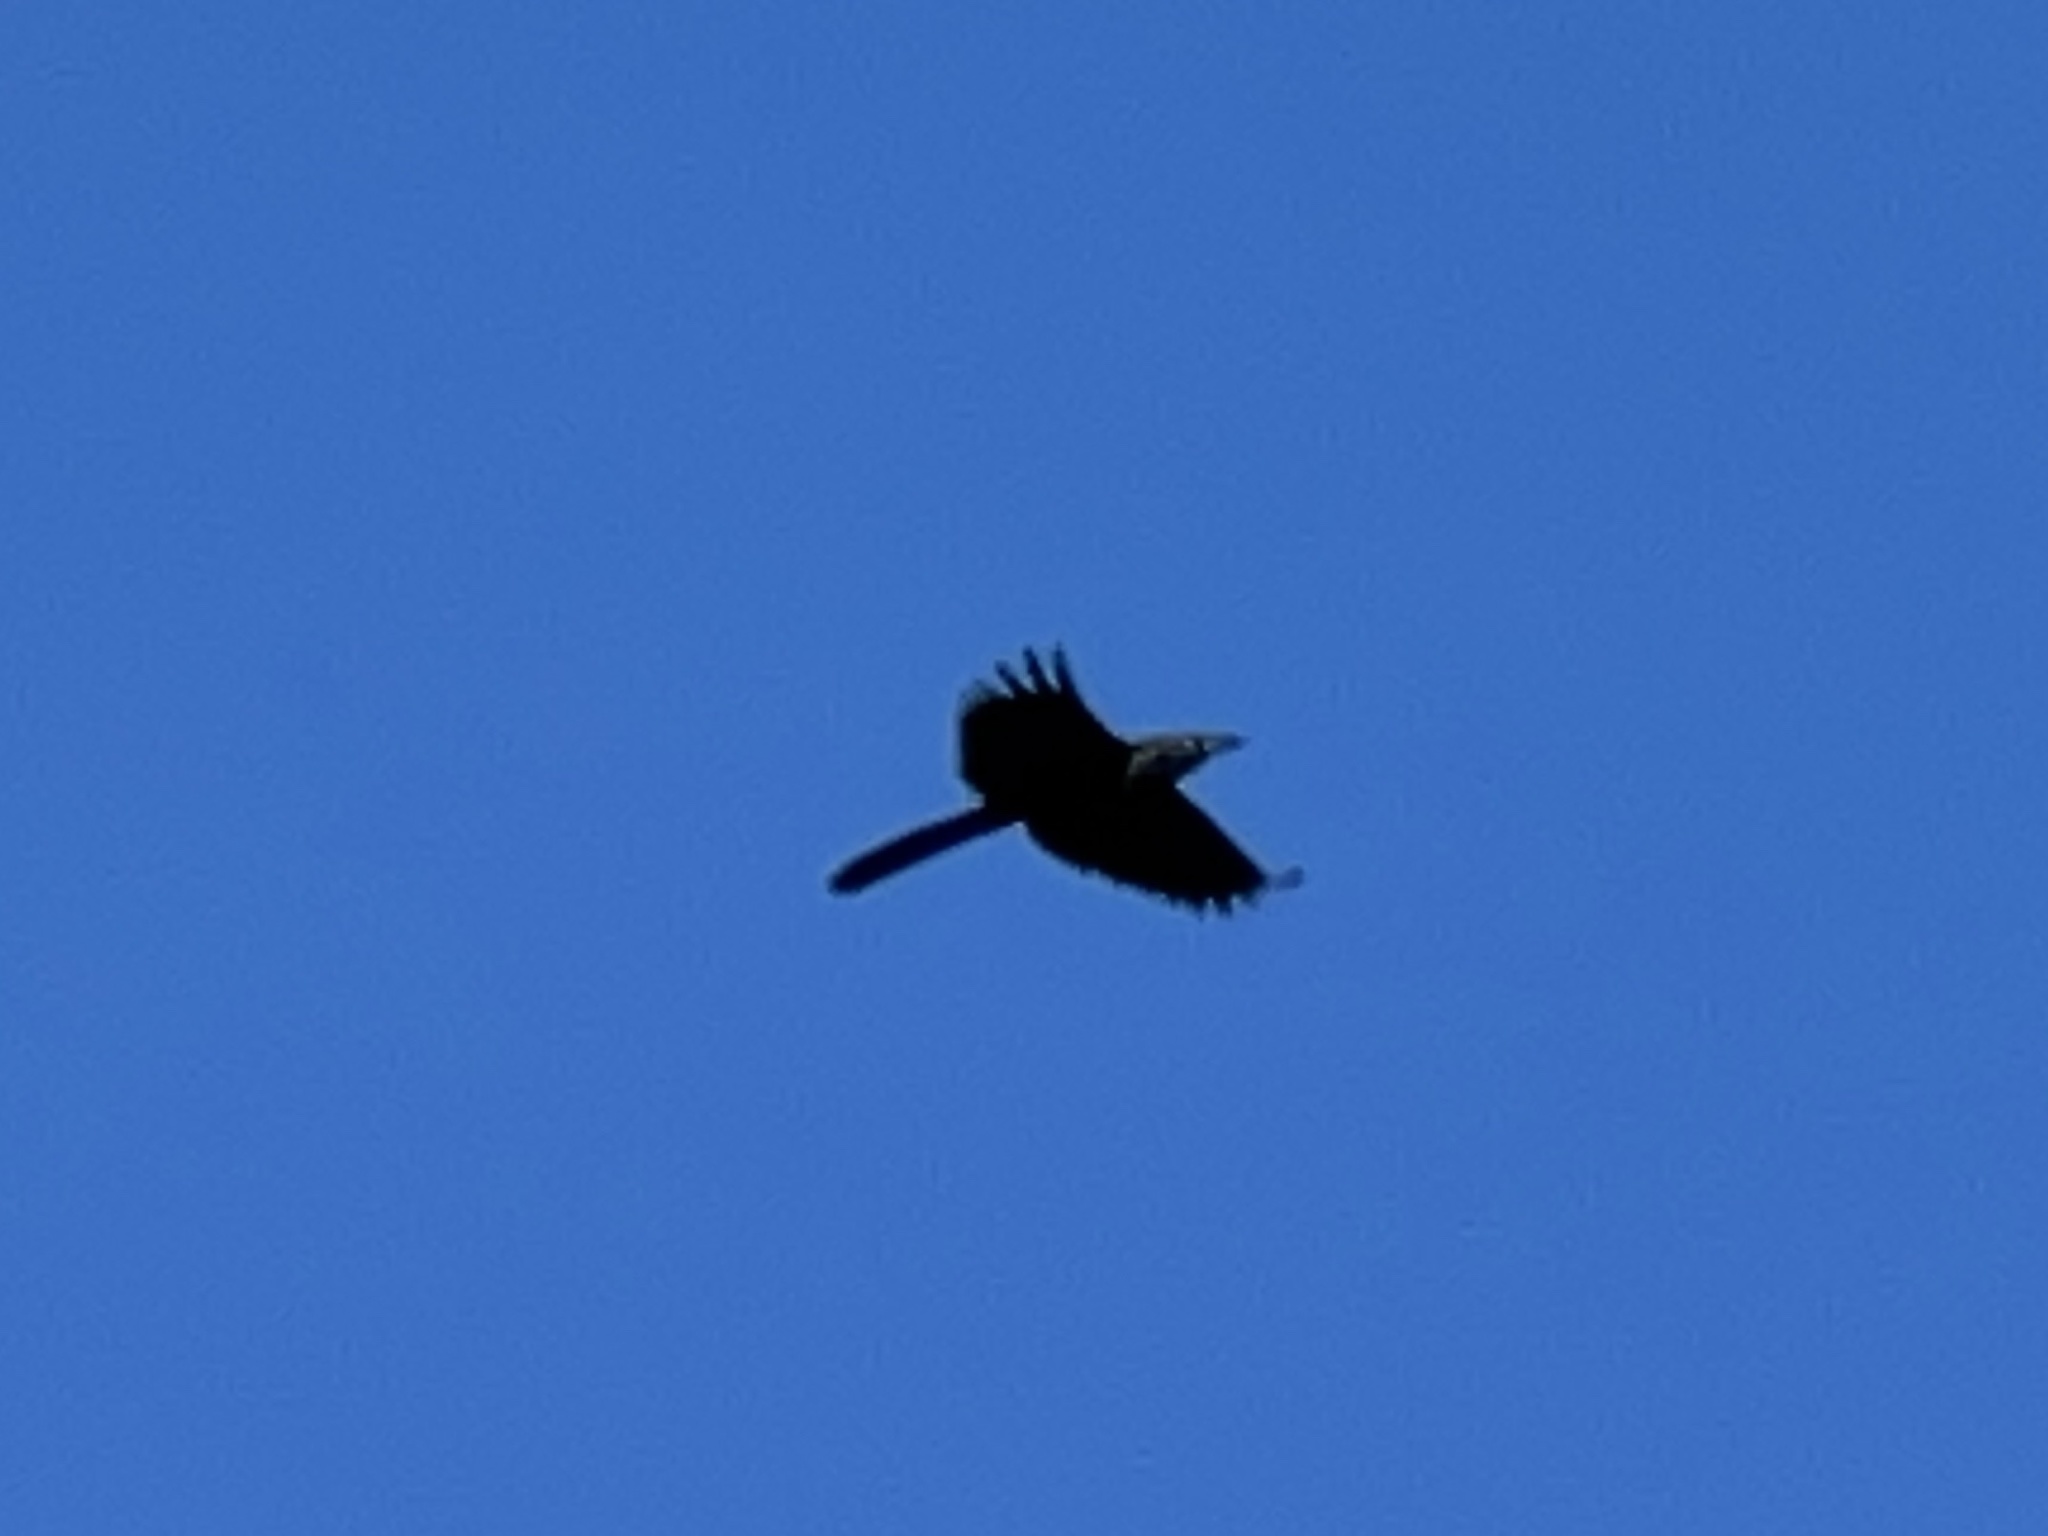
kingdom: Animalia
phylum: Chordata
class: Aves
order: Passeriformes
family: Icteridae
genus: Quiscalus
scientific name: Quiscalus mexicanus
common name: Great-tailed grackle
